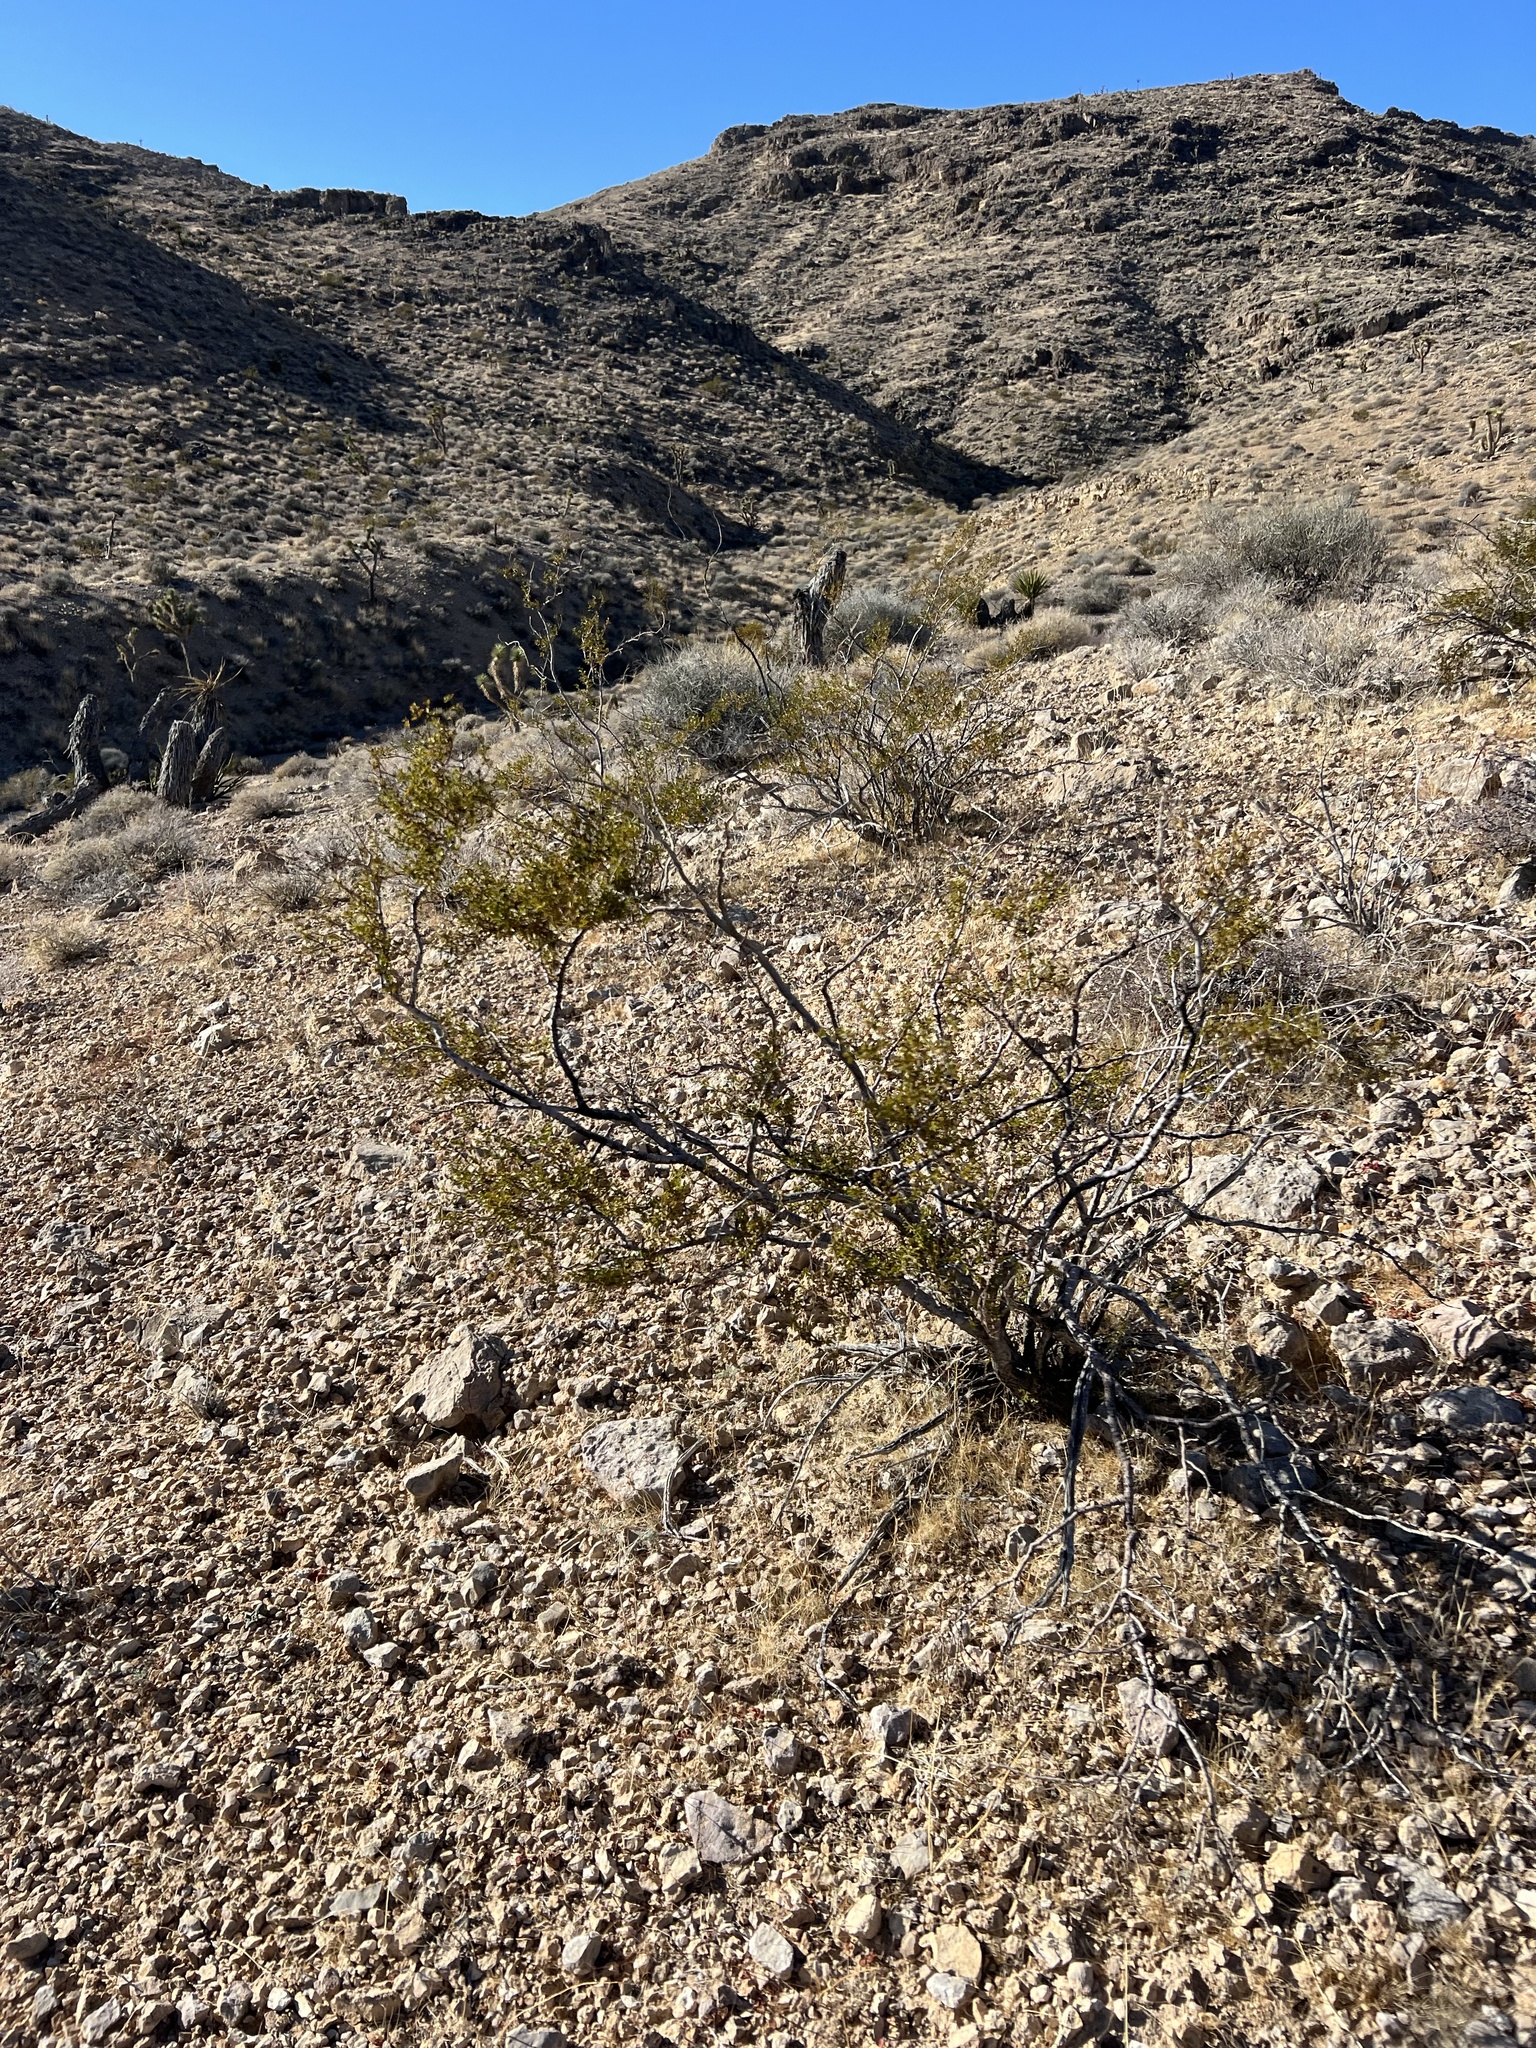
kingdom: Plantae
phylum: Tracheophyta
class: Magnoliopsida
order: Zygophyllales
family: Zygophyllaceae
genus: Larrea
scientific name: Larrea tridentata
